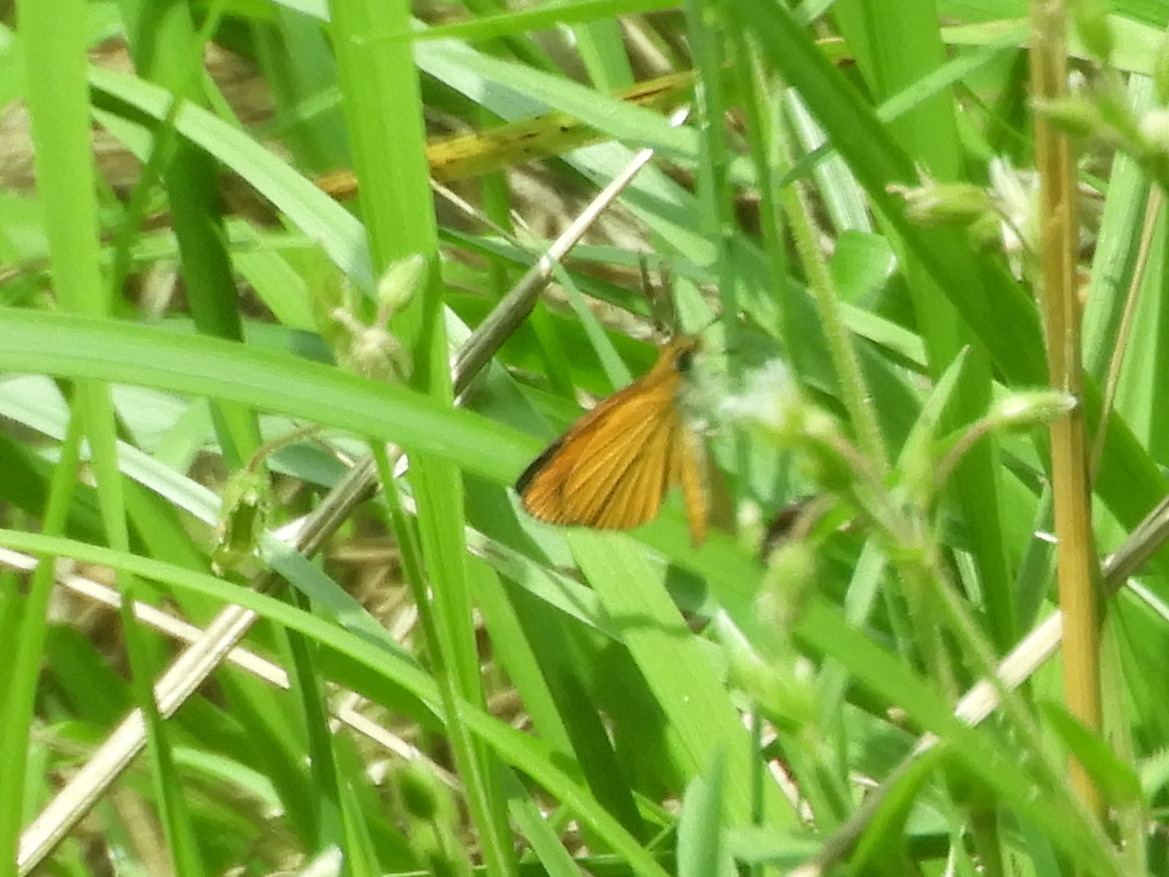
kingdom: Animalia
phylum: Arthropoda
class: Insecta
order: Lepidoptera
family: Hesperiidae
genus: Ancyloxypha
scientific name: Ancyloxypha numitor
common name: Least skipper
